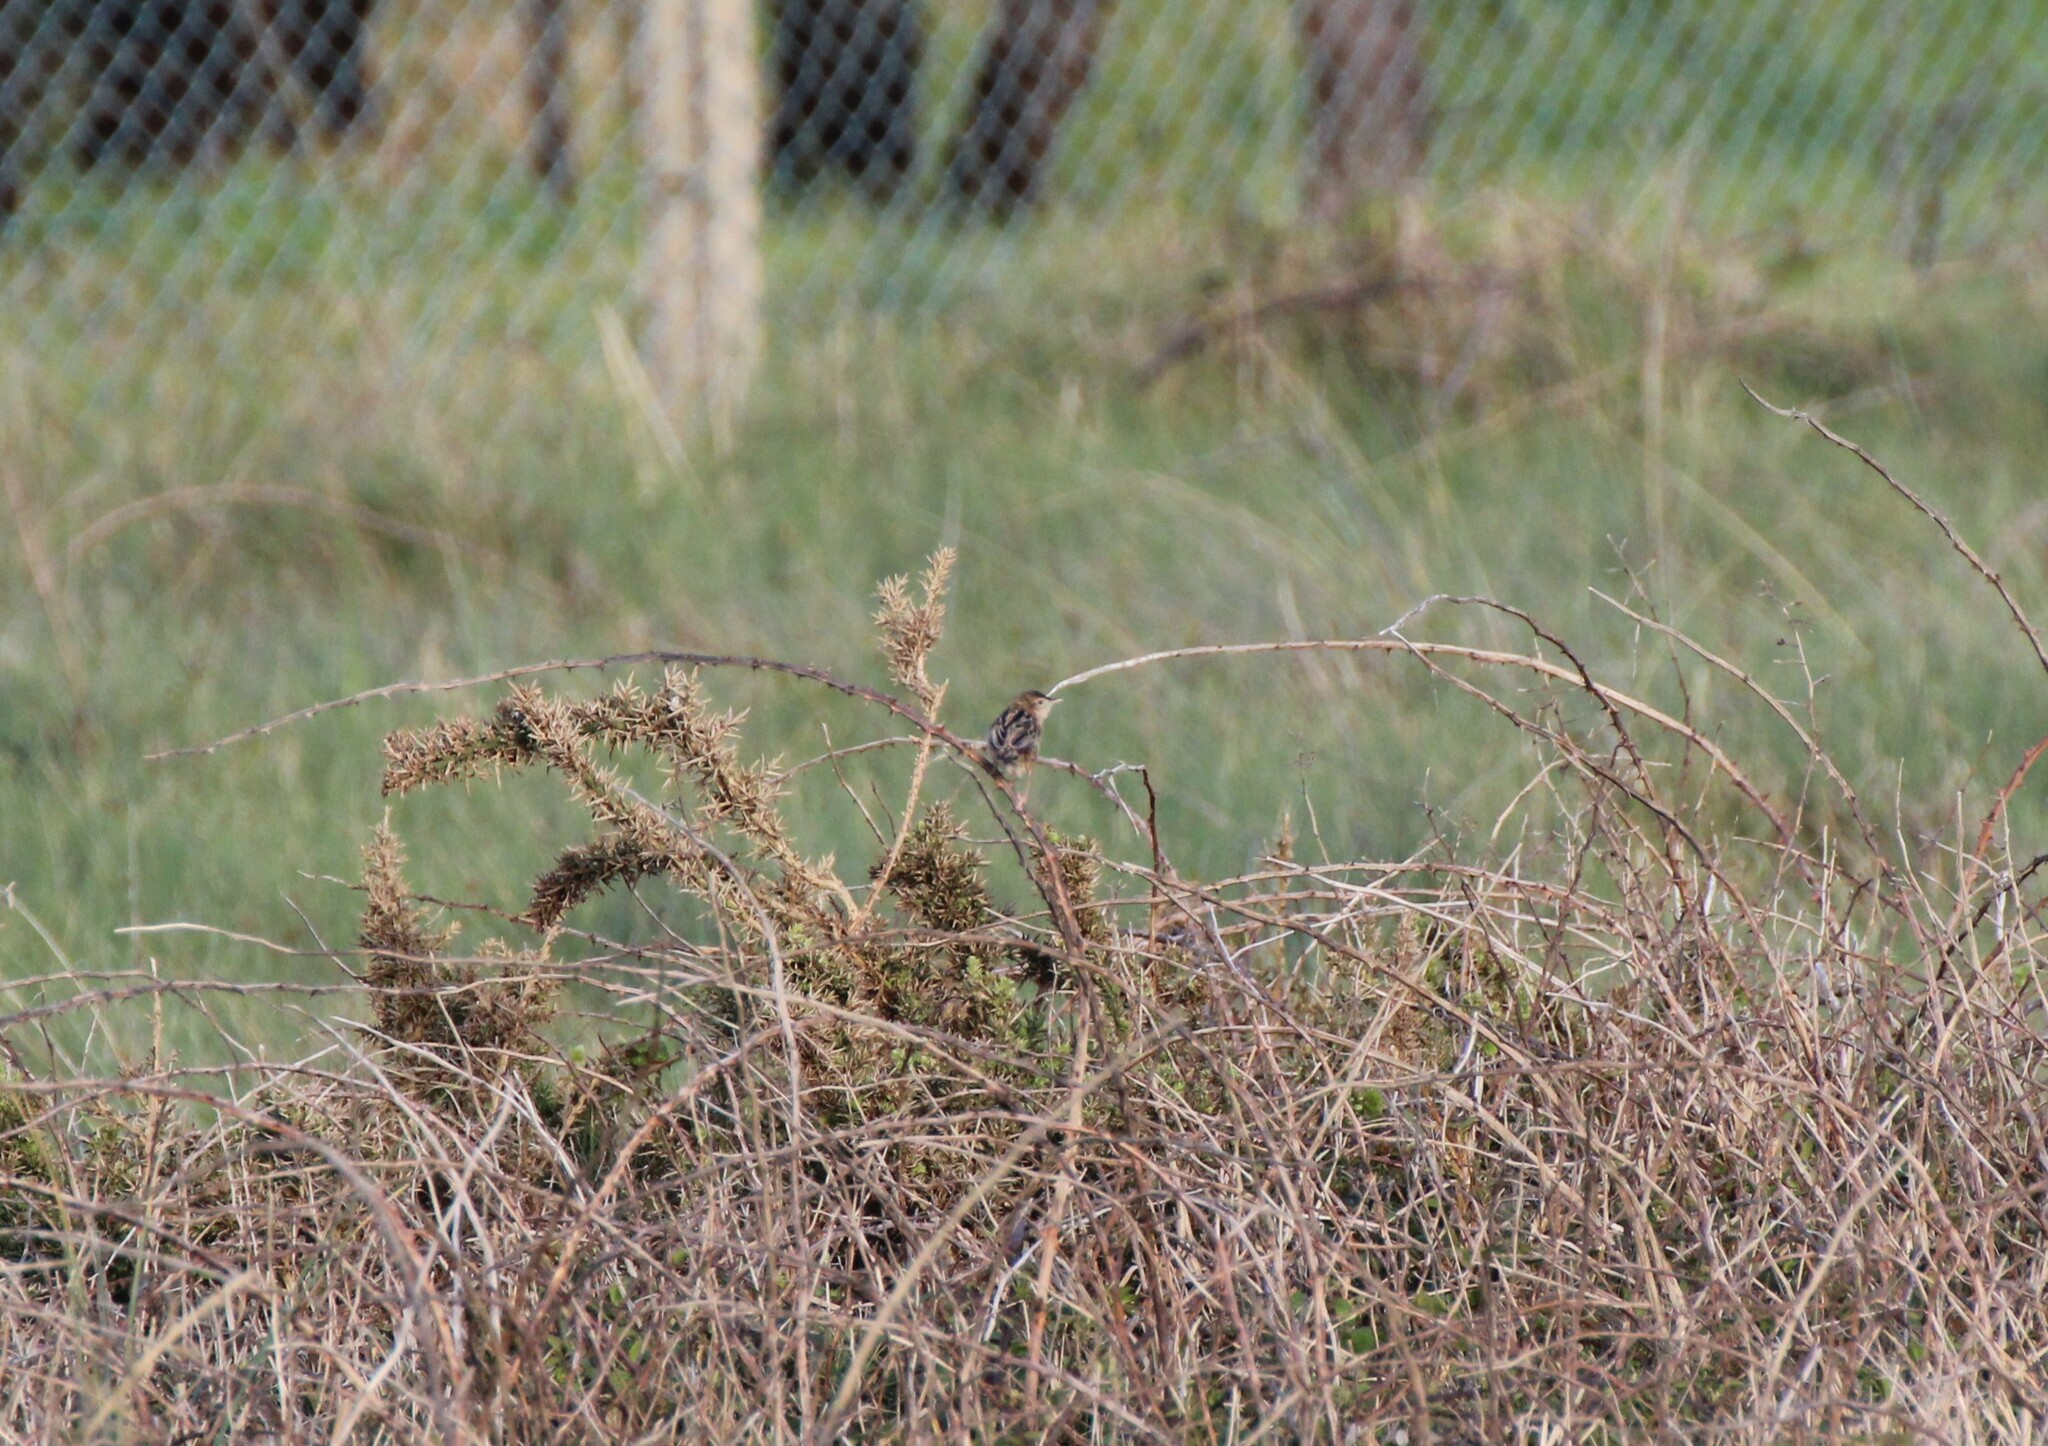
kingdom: Animalia
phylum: Chordata
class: Aves
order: Passeriformes
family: Cisticolidae
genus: Cisticola
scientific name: Cisticola juncidis
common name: Zitting cisticola
